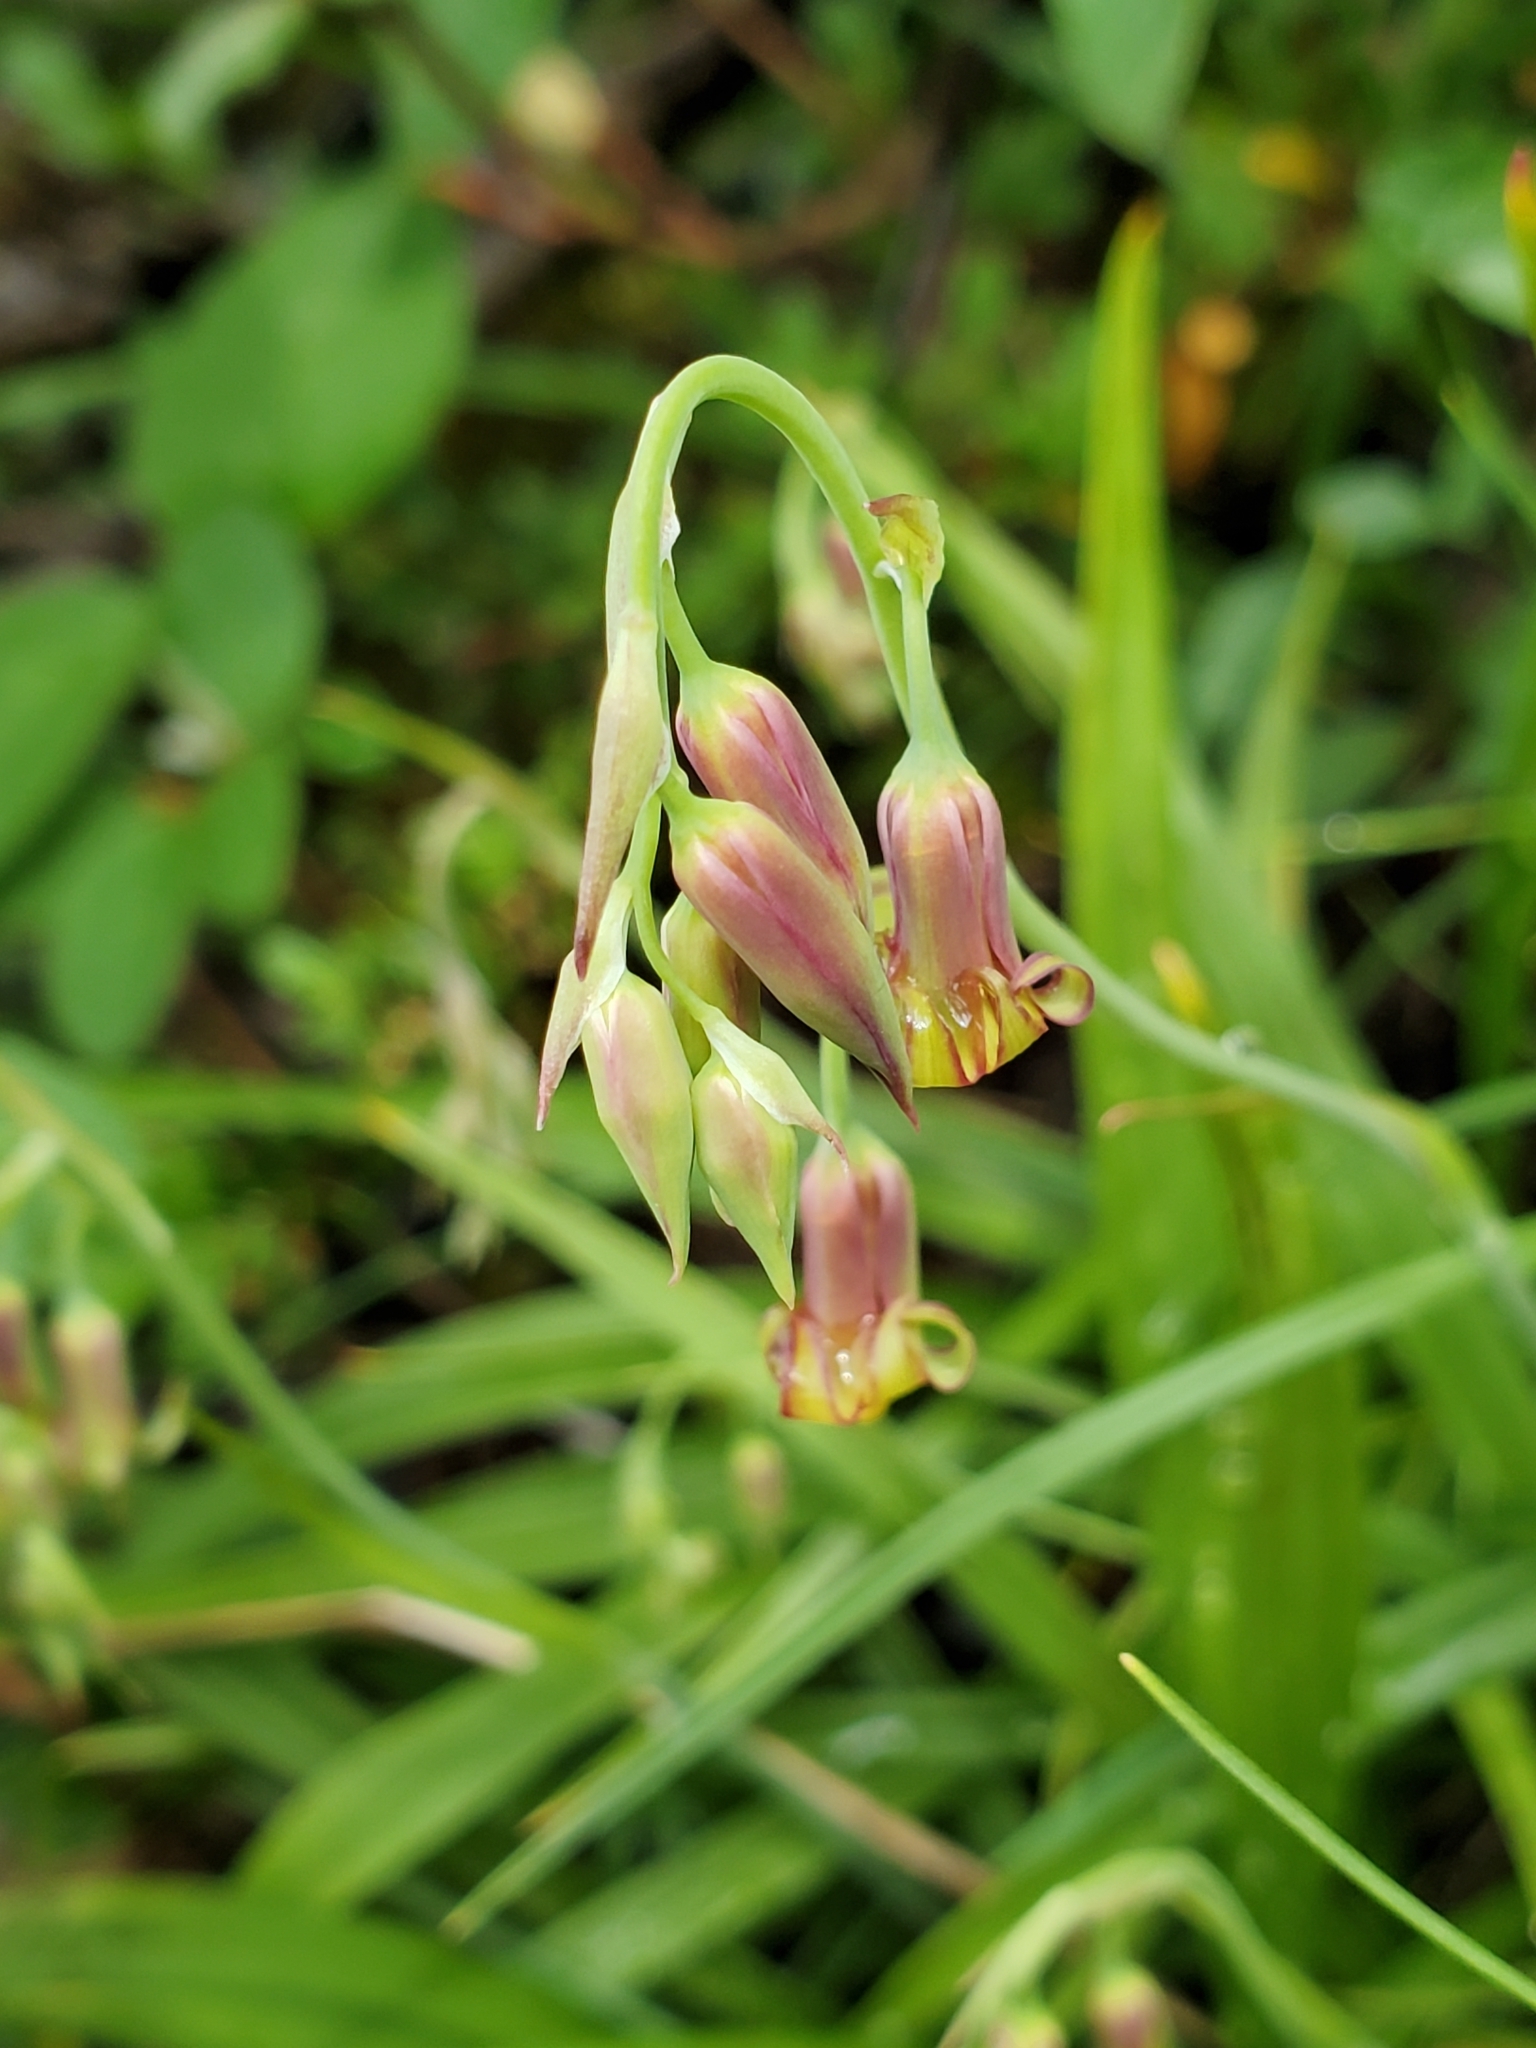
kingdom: Plantae
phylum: Tracheophyta
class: Liliopsida
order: Liliales
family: Melanthiaceae
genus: Anticlea
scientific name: Anticlea occidentalis
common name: Bronze-bells
